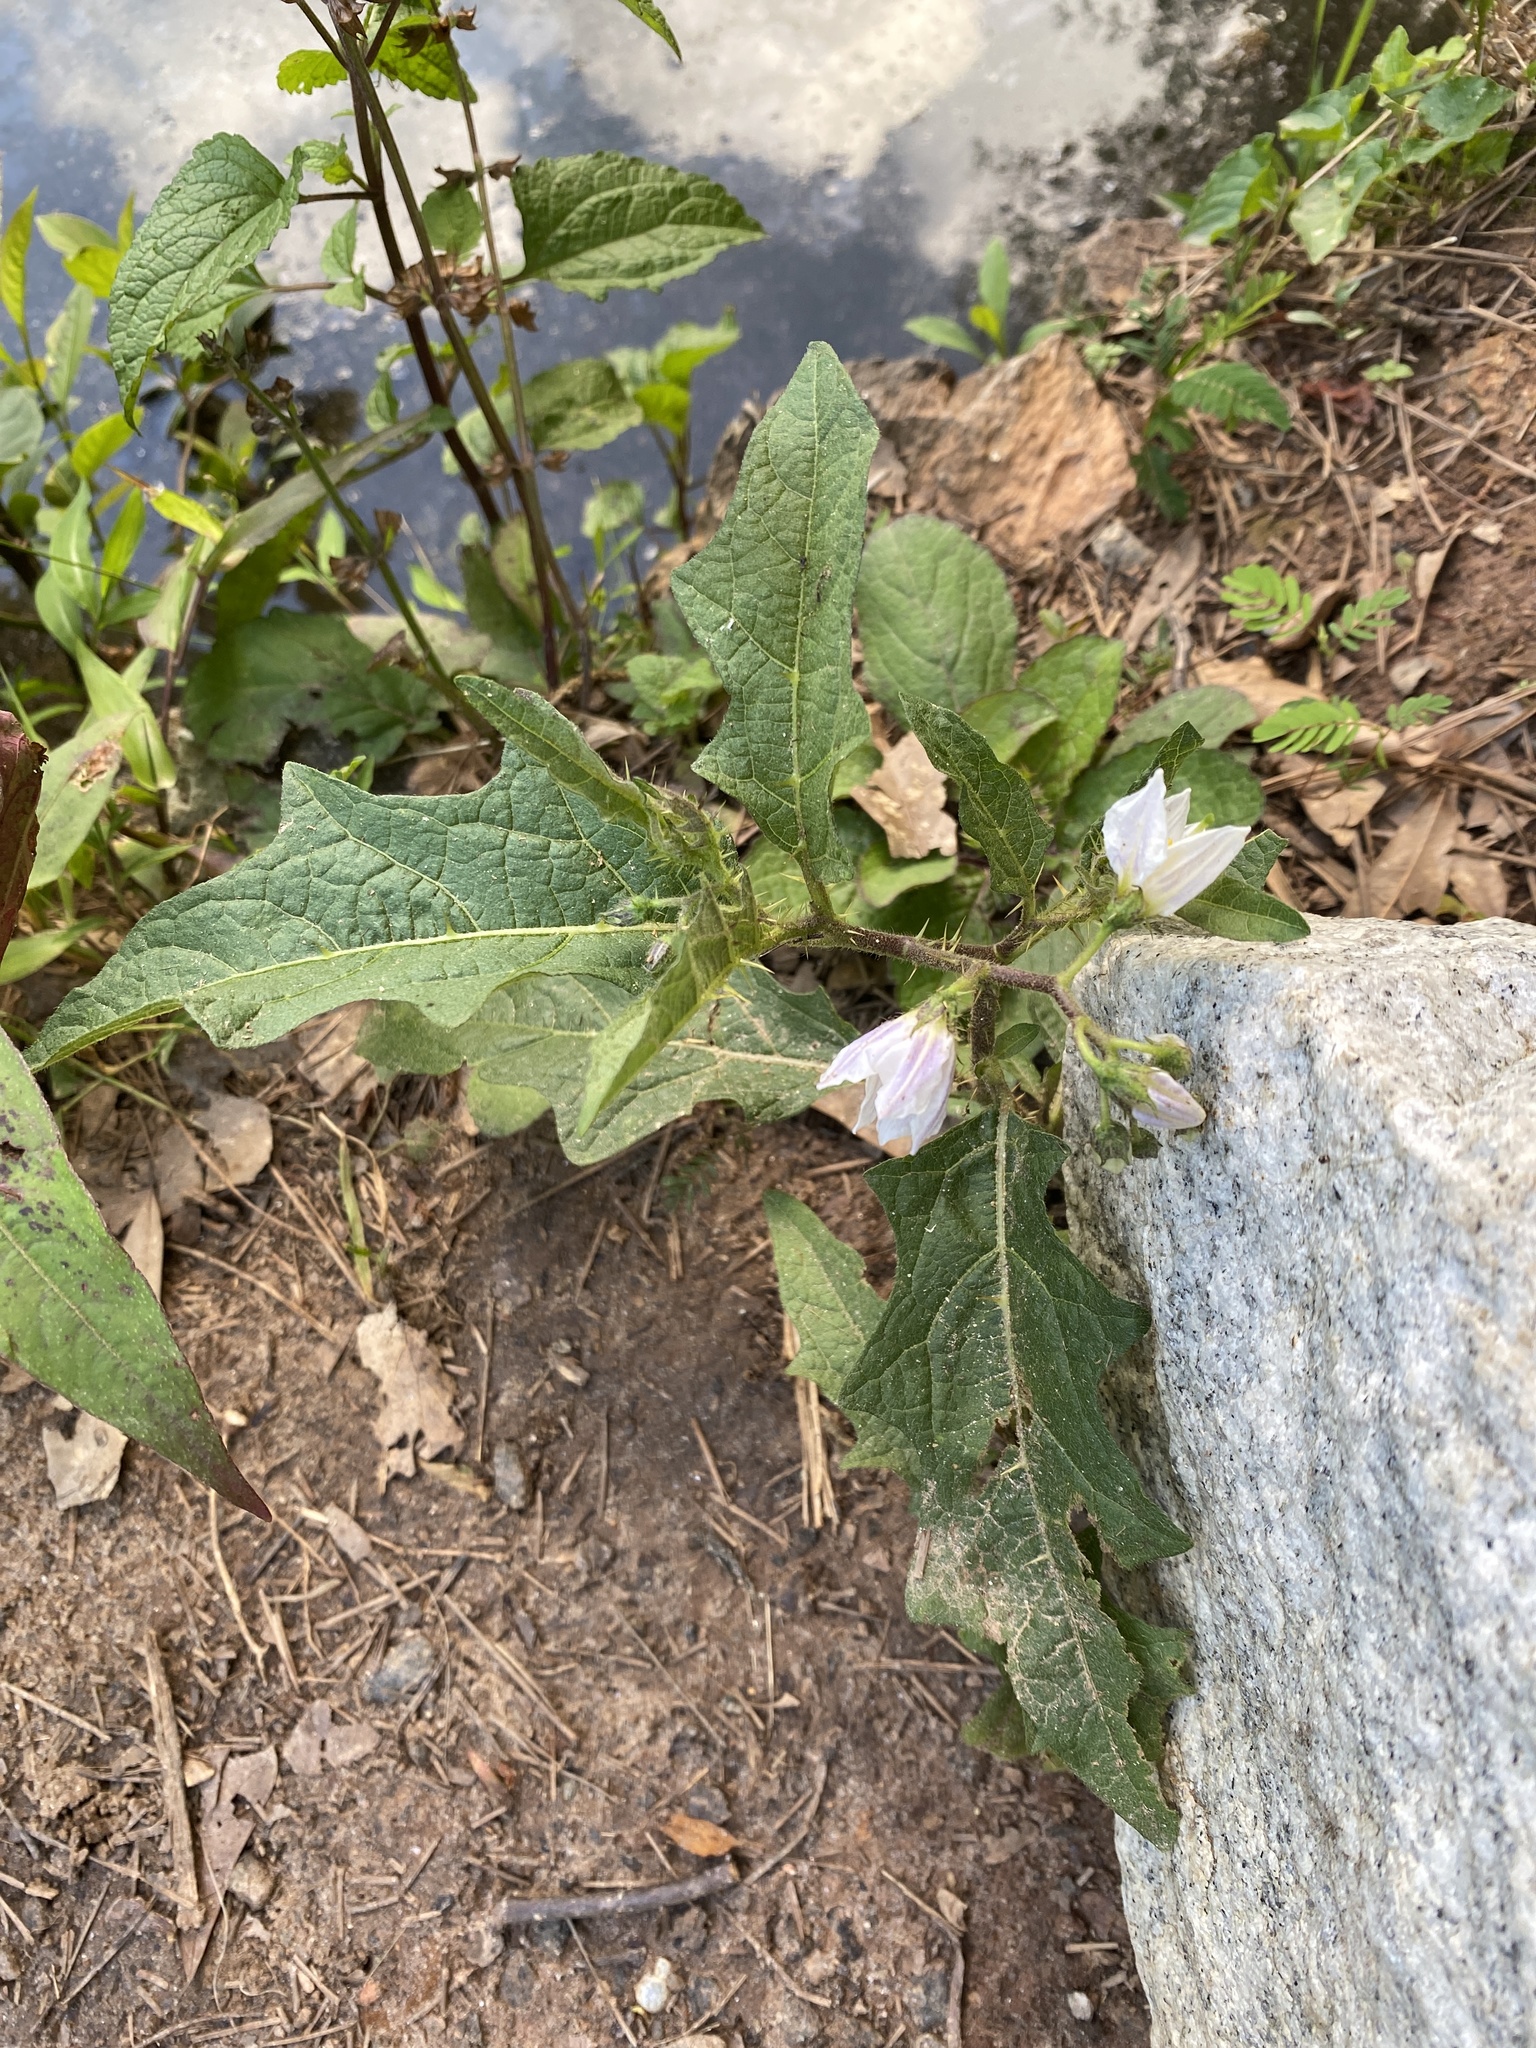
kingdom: Plantae
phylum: Tracheophyta
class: Magnoliopsida
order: Solanales
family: Solanaceae
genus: Solanum
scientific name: Solanum carolinense
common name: Horse-nettle
